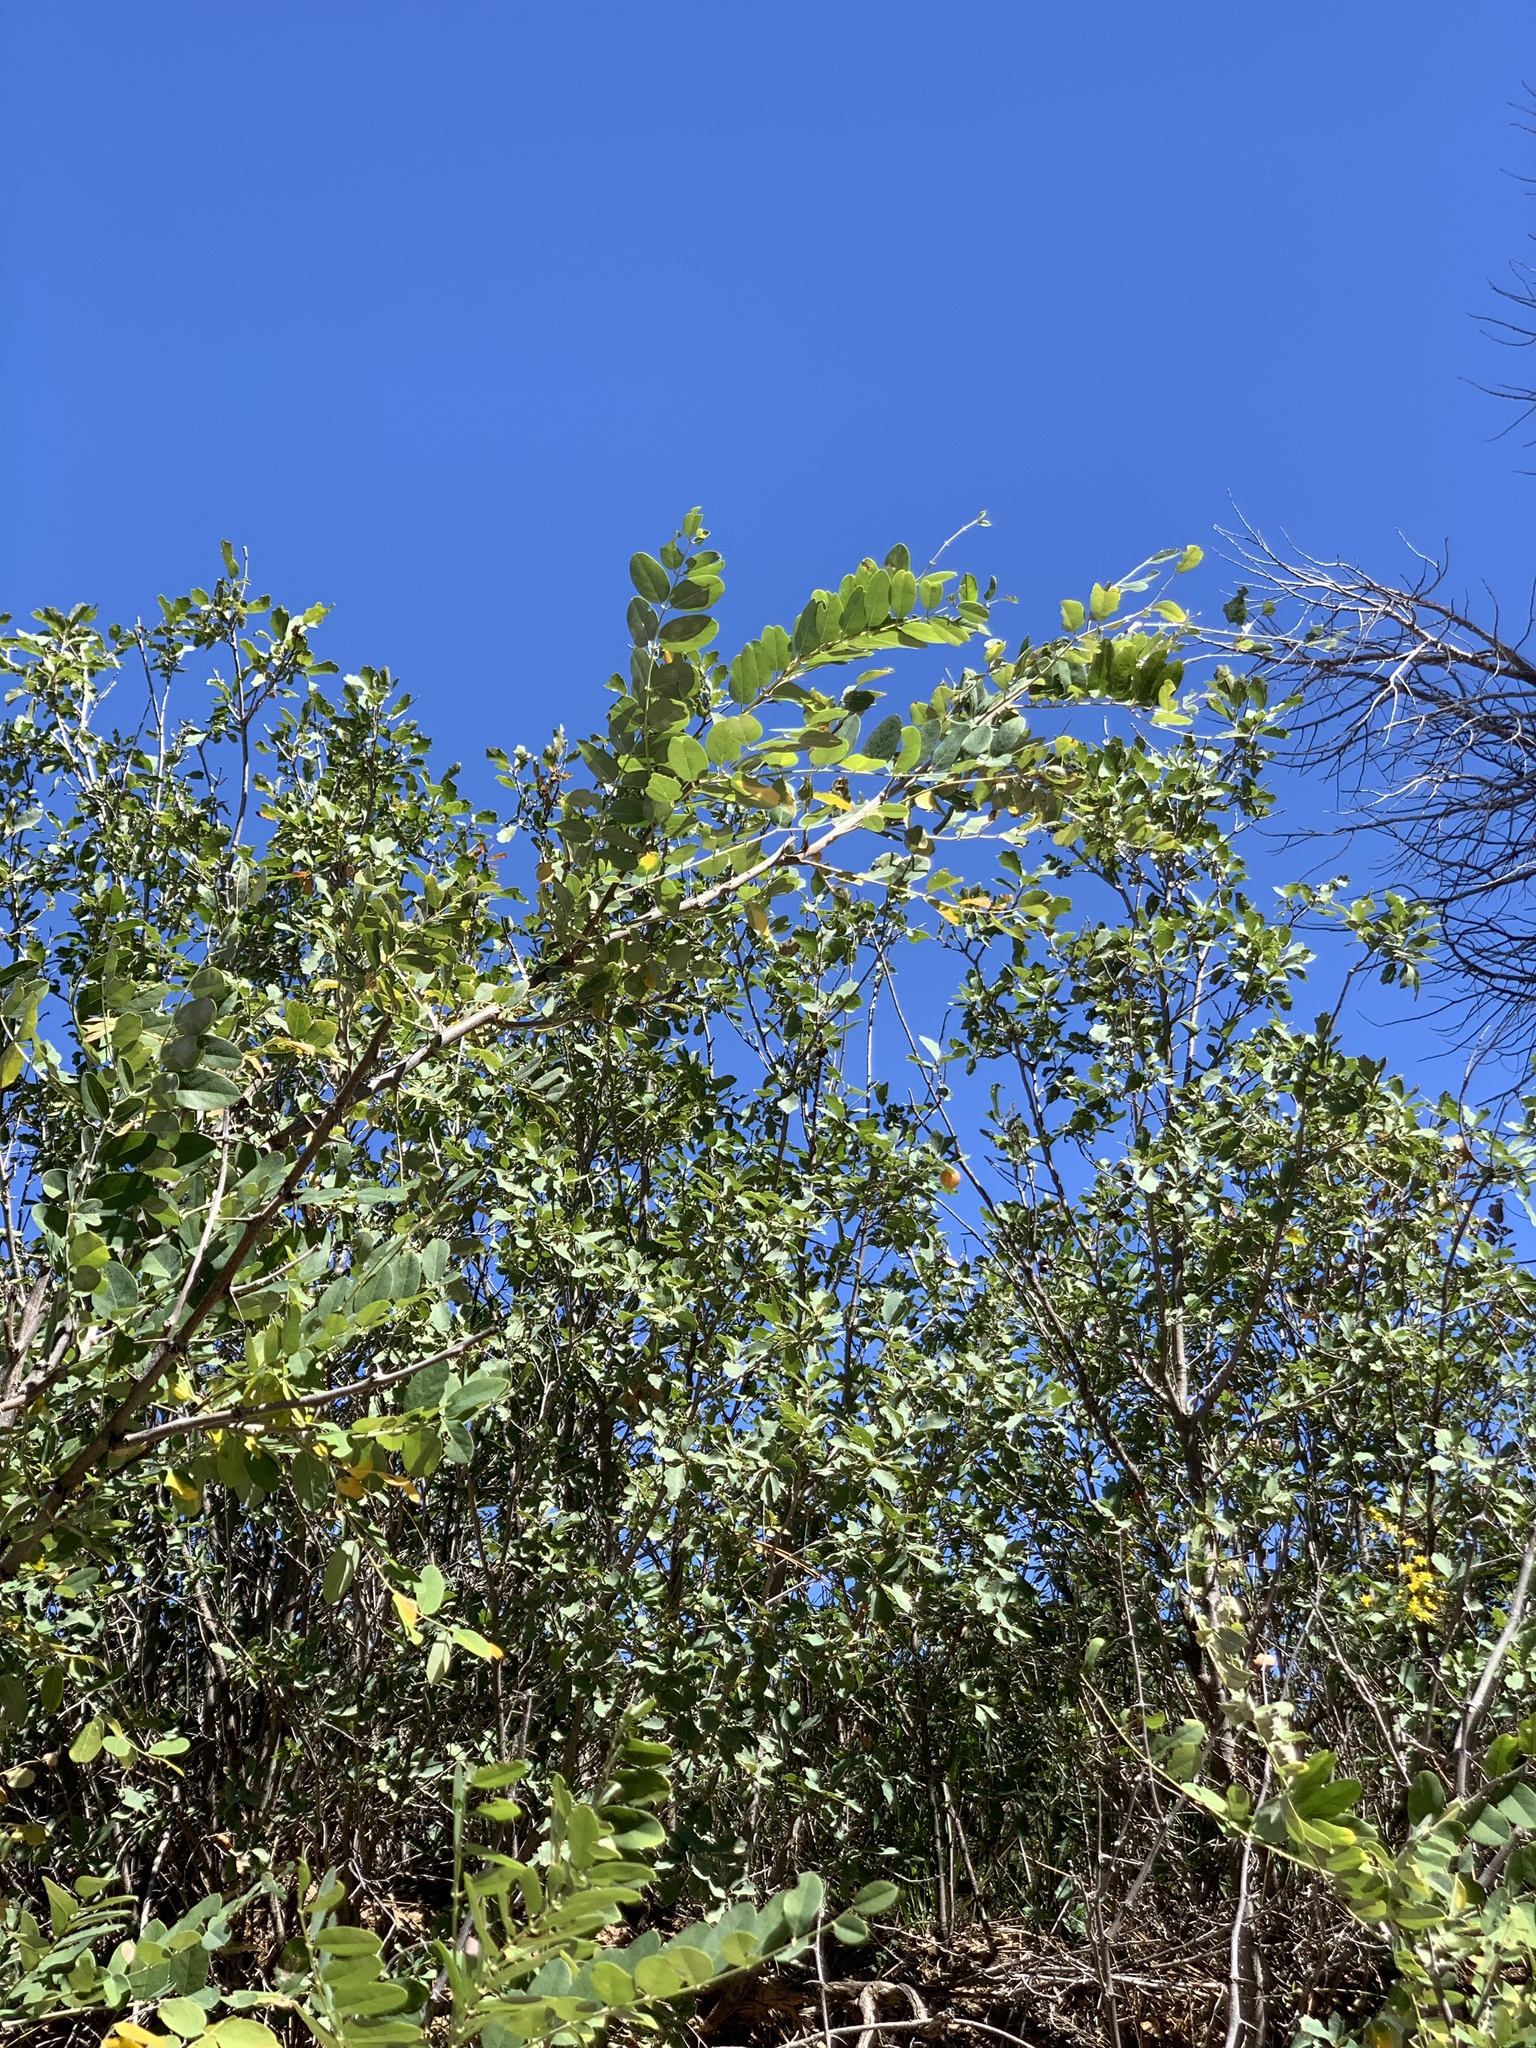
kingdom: Plantae
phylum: Tracheophyta
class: Magnoliopsida
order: Fabales
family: Fabaceae
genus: Robinia
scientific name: Robinia neomexicana
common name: New mexico locust
